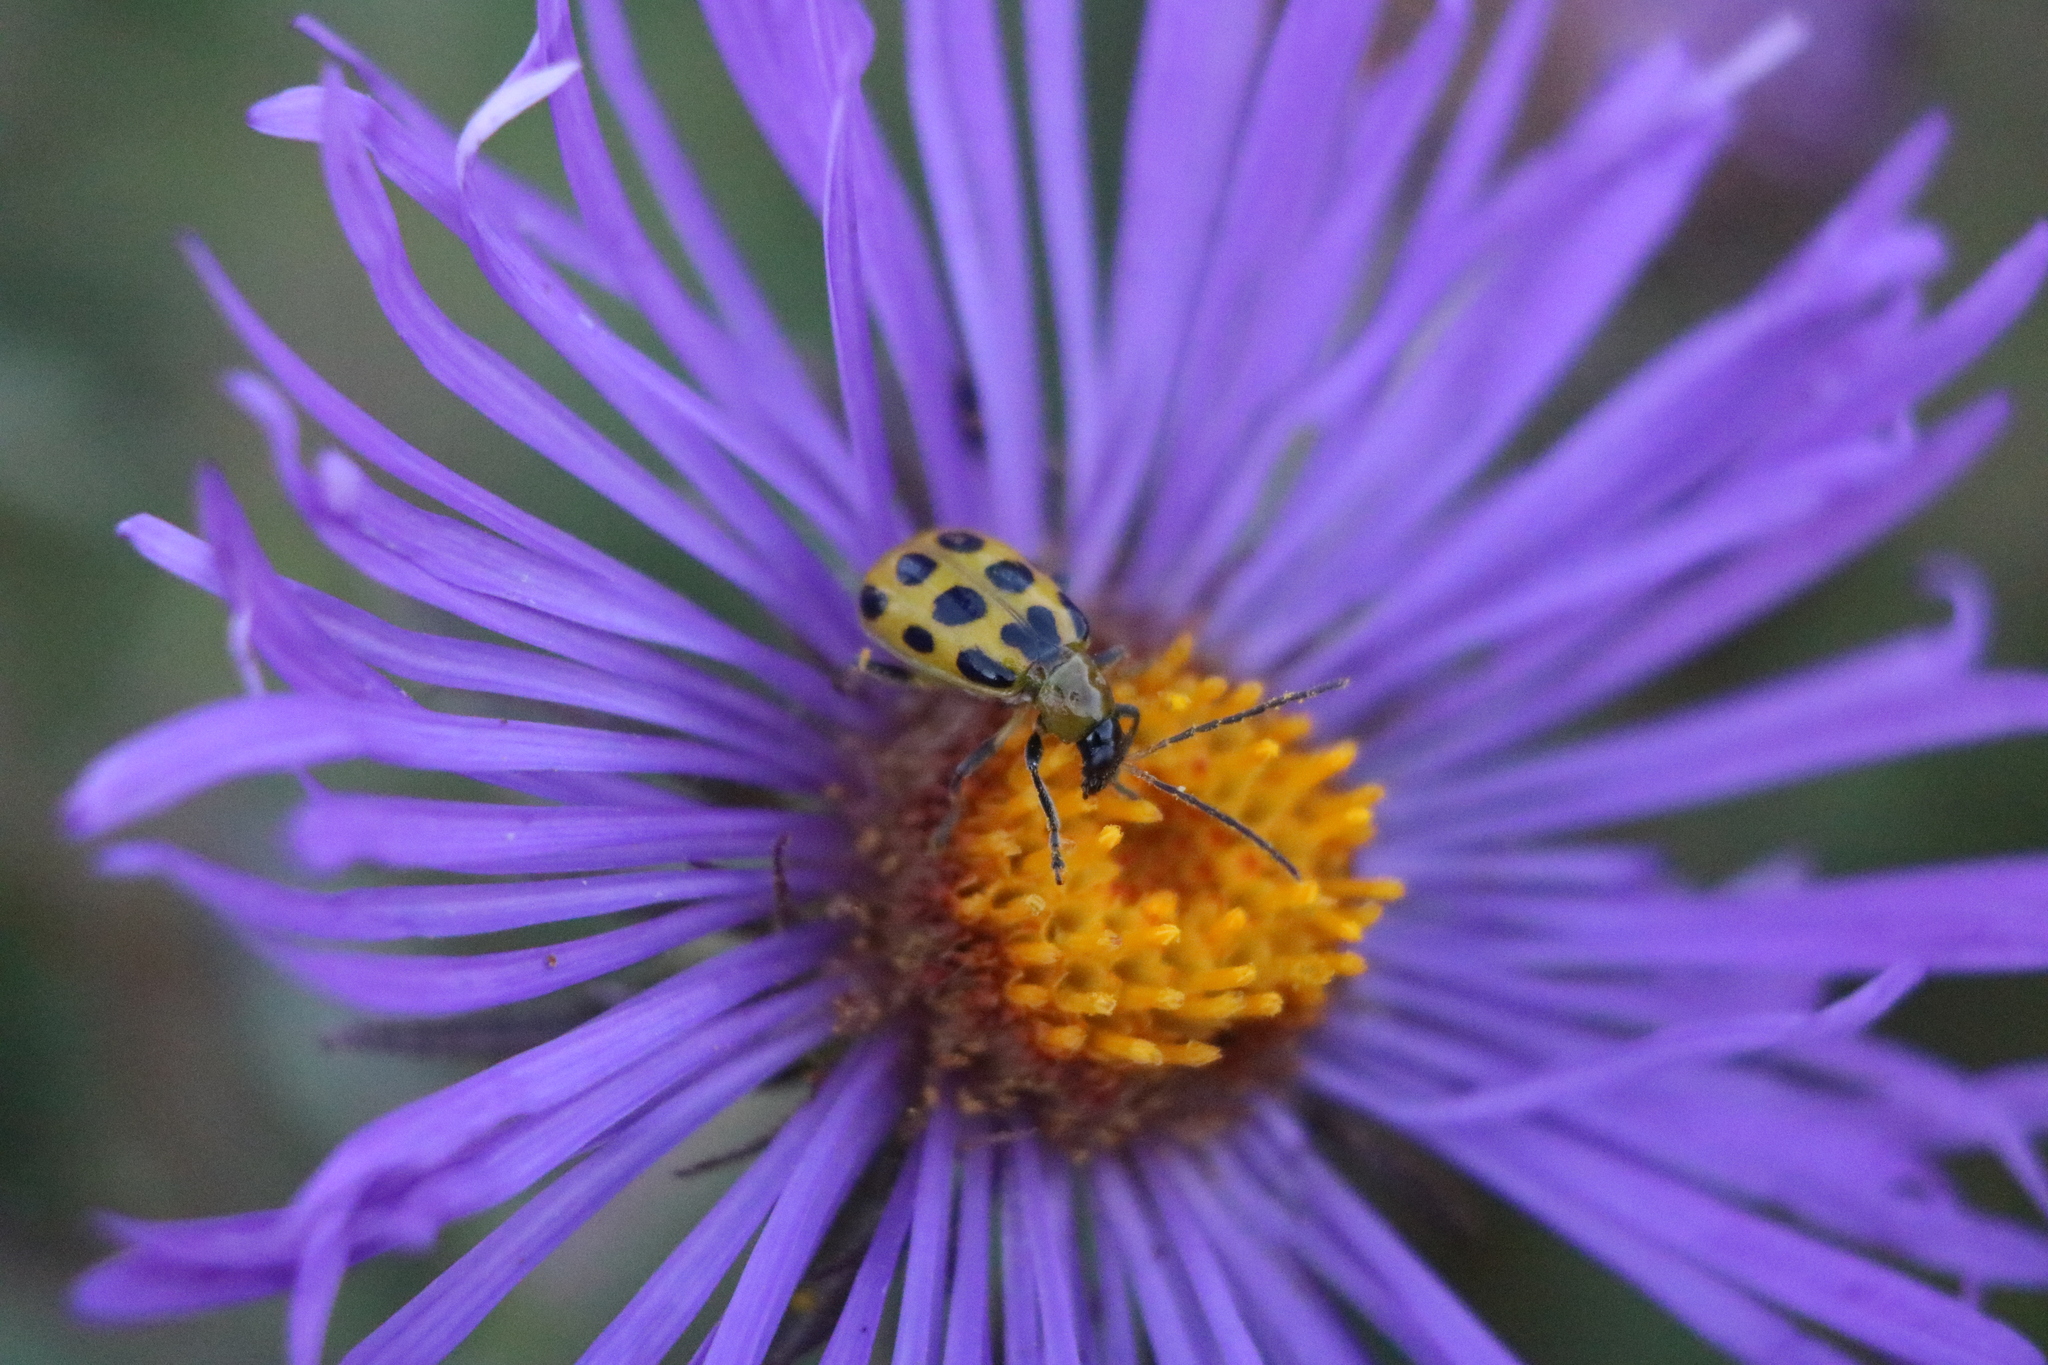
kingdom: Animalia
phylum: Arthropoda
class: Insecta
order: Coleoptera
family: Chrysomelidae
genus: Diabrotica
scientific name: Diabrotica undecimpunctata
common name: Spotted cucumber beetle
